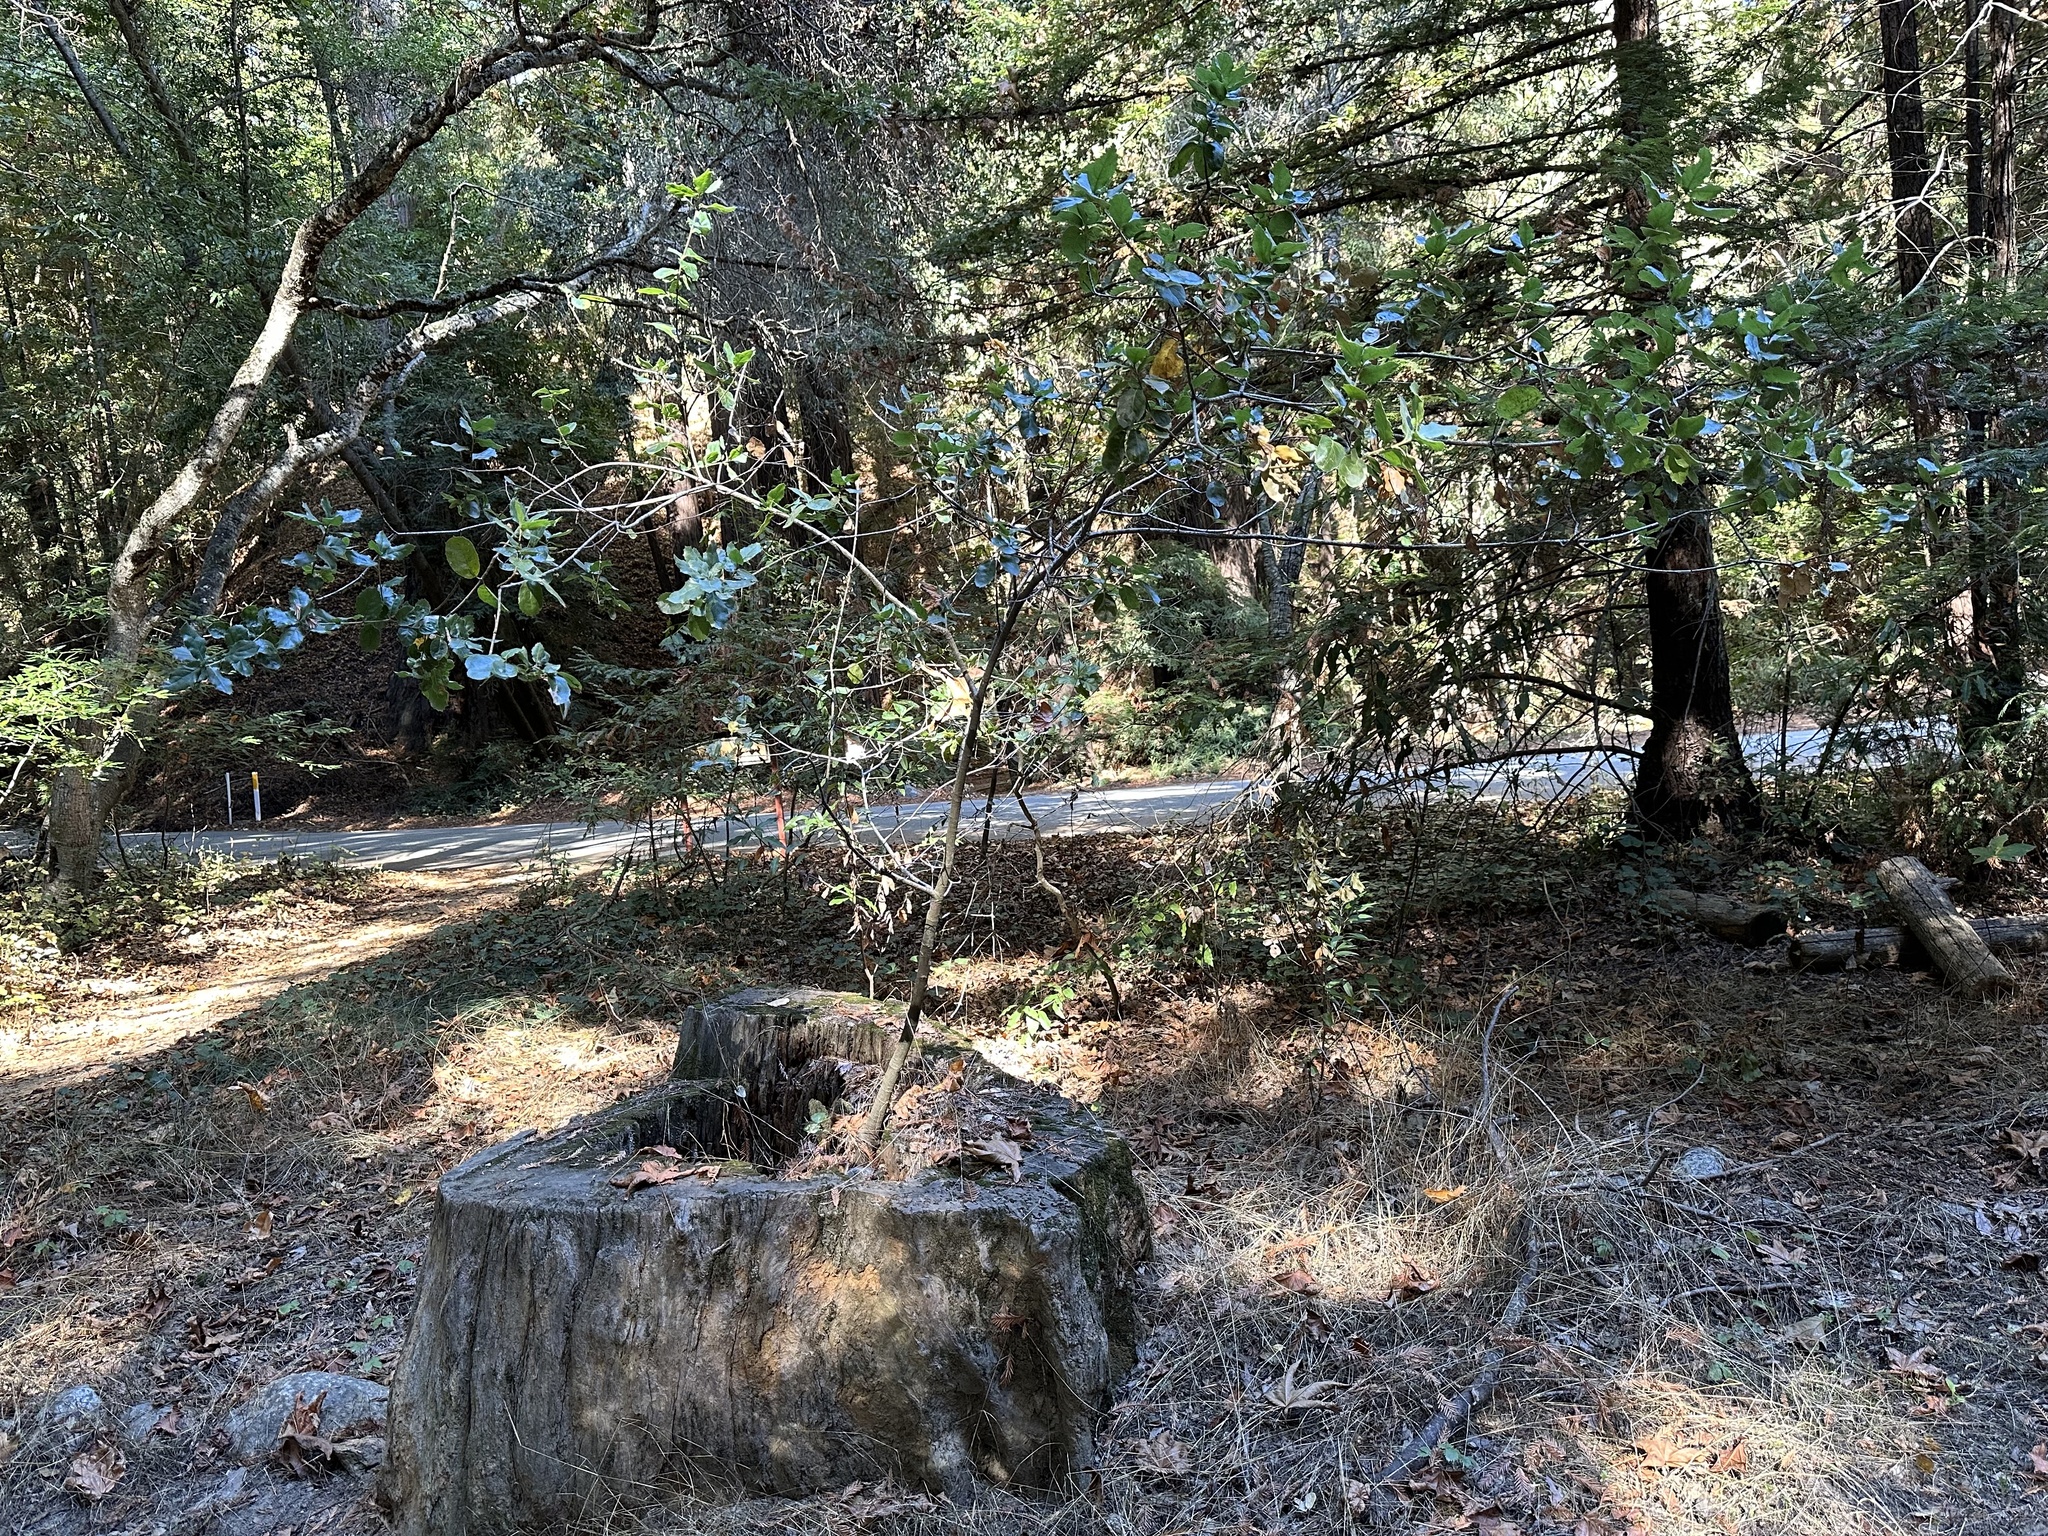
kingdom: Plantae
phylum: Tracheophyta
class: Magnoliopsida
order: Fagales
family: Fagaceae
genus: Quercus
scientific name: Quercus agrifolia
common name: California live oak
